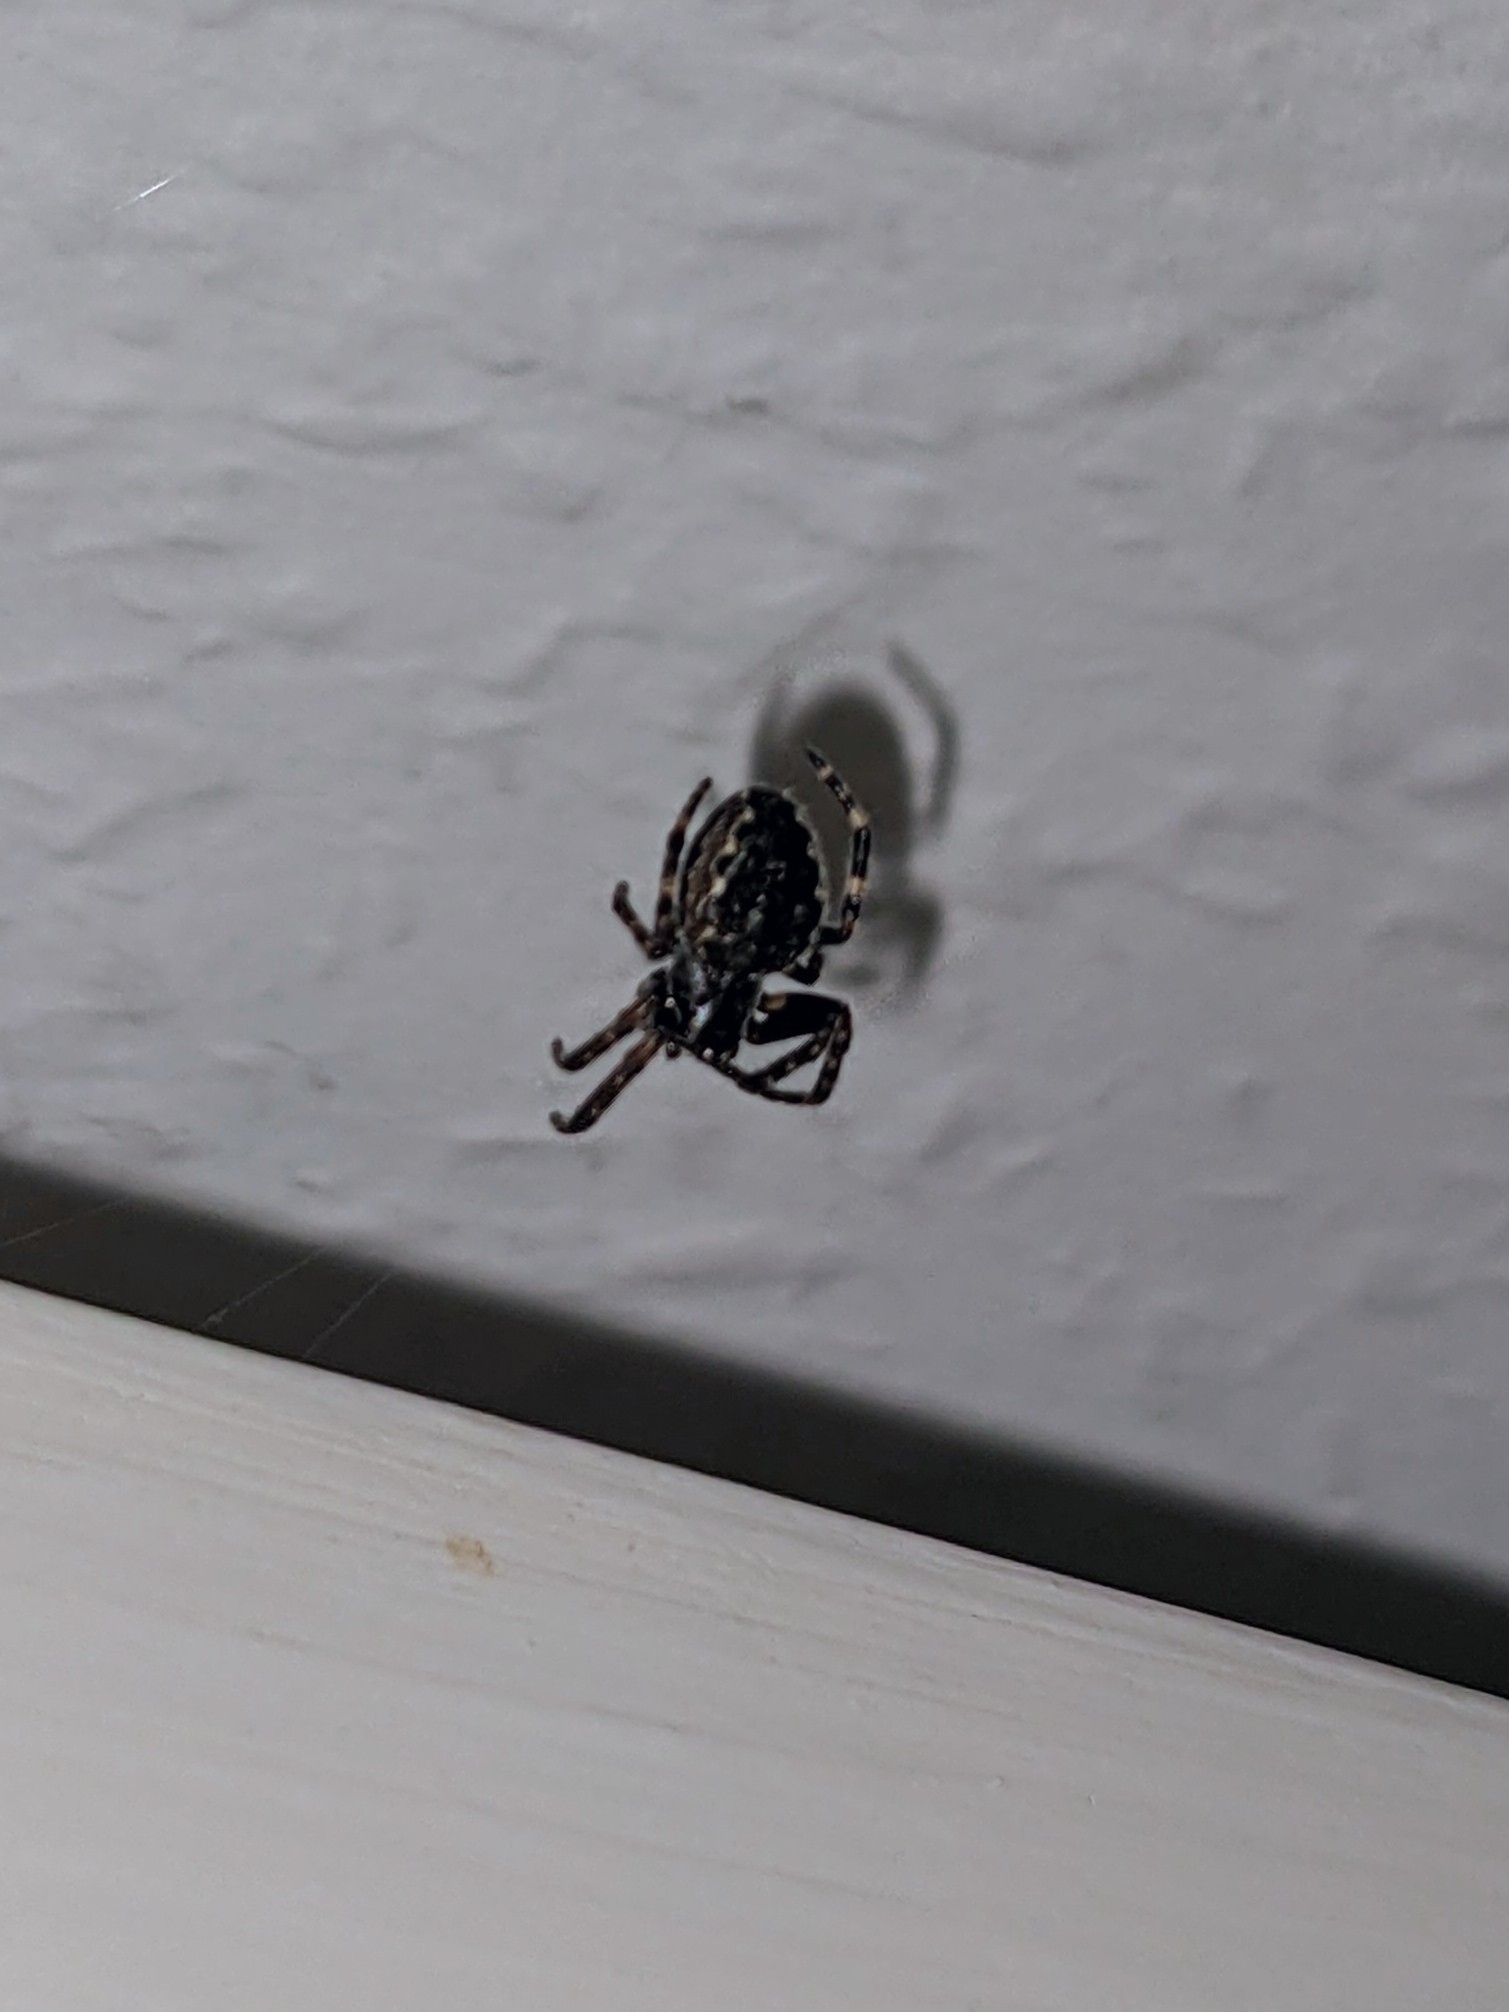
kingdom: Animalia
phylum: Arthropoda
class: Arachnida
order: Araneae
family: Araneidae
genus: Nuctenea
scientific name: Nuctenea umbratica
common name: Toad spider
